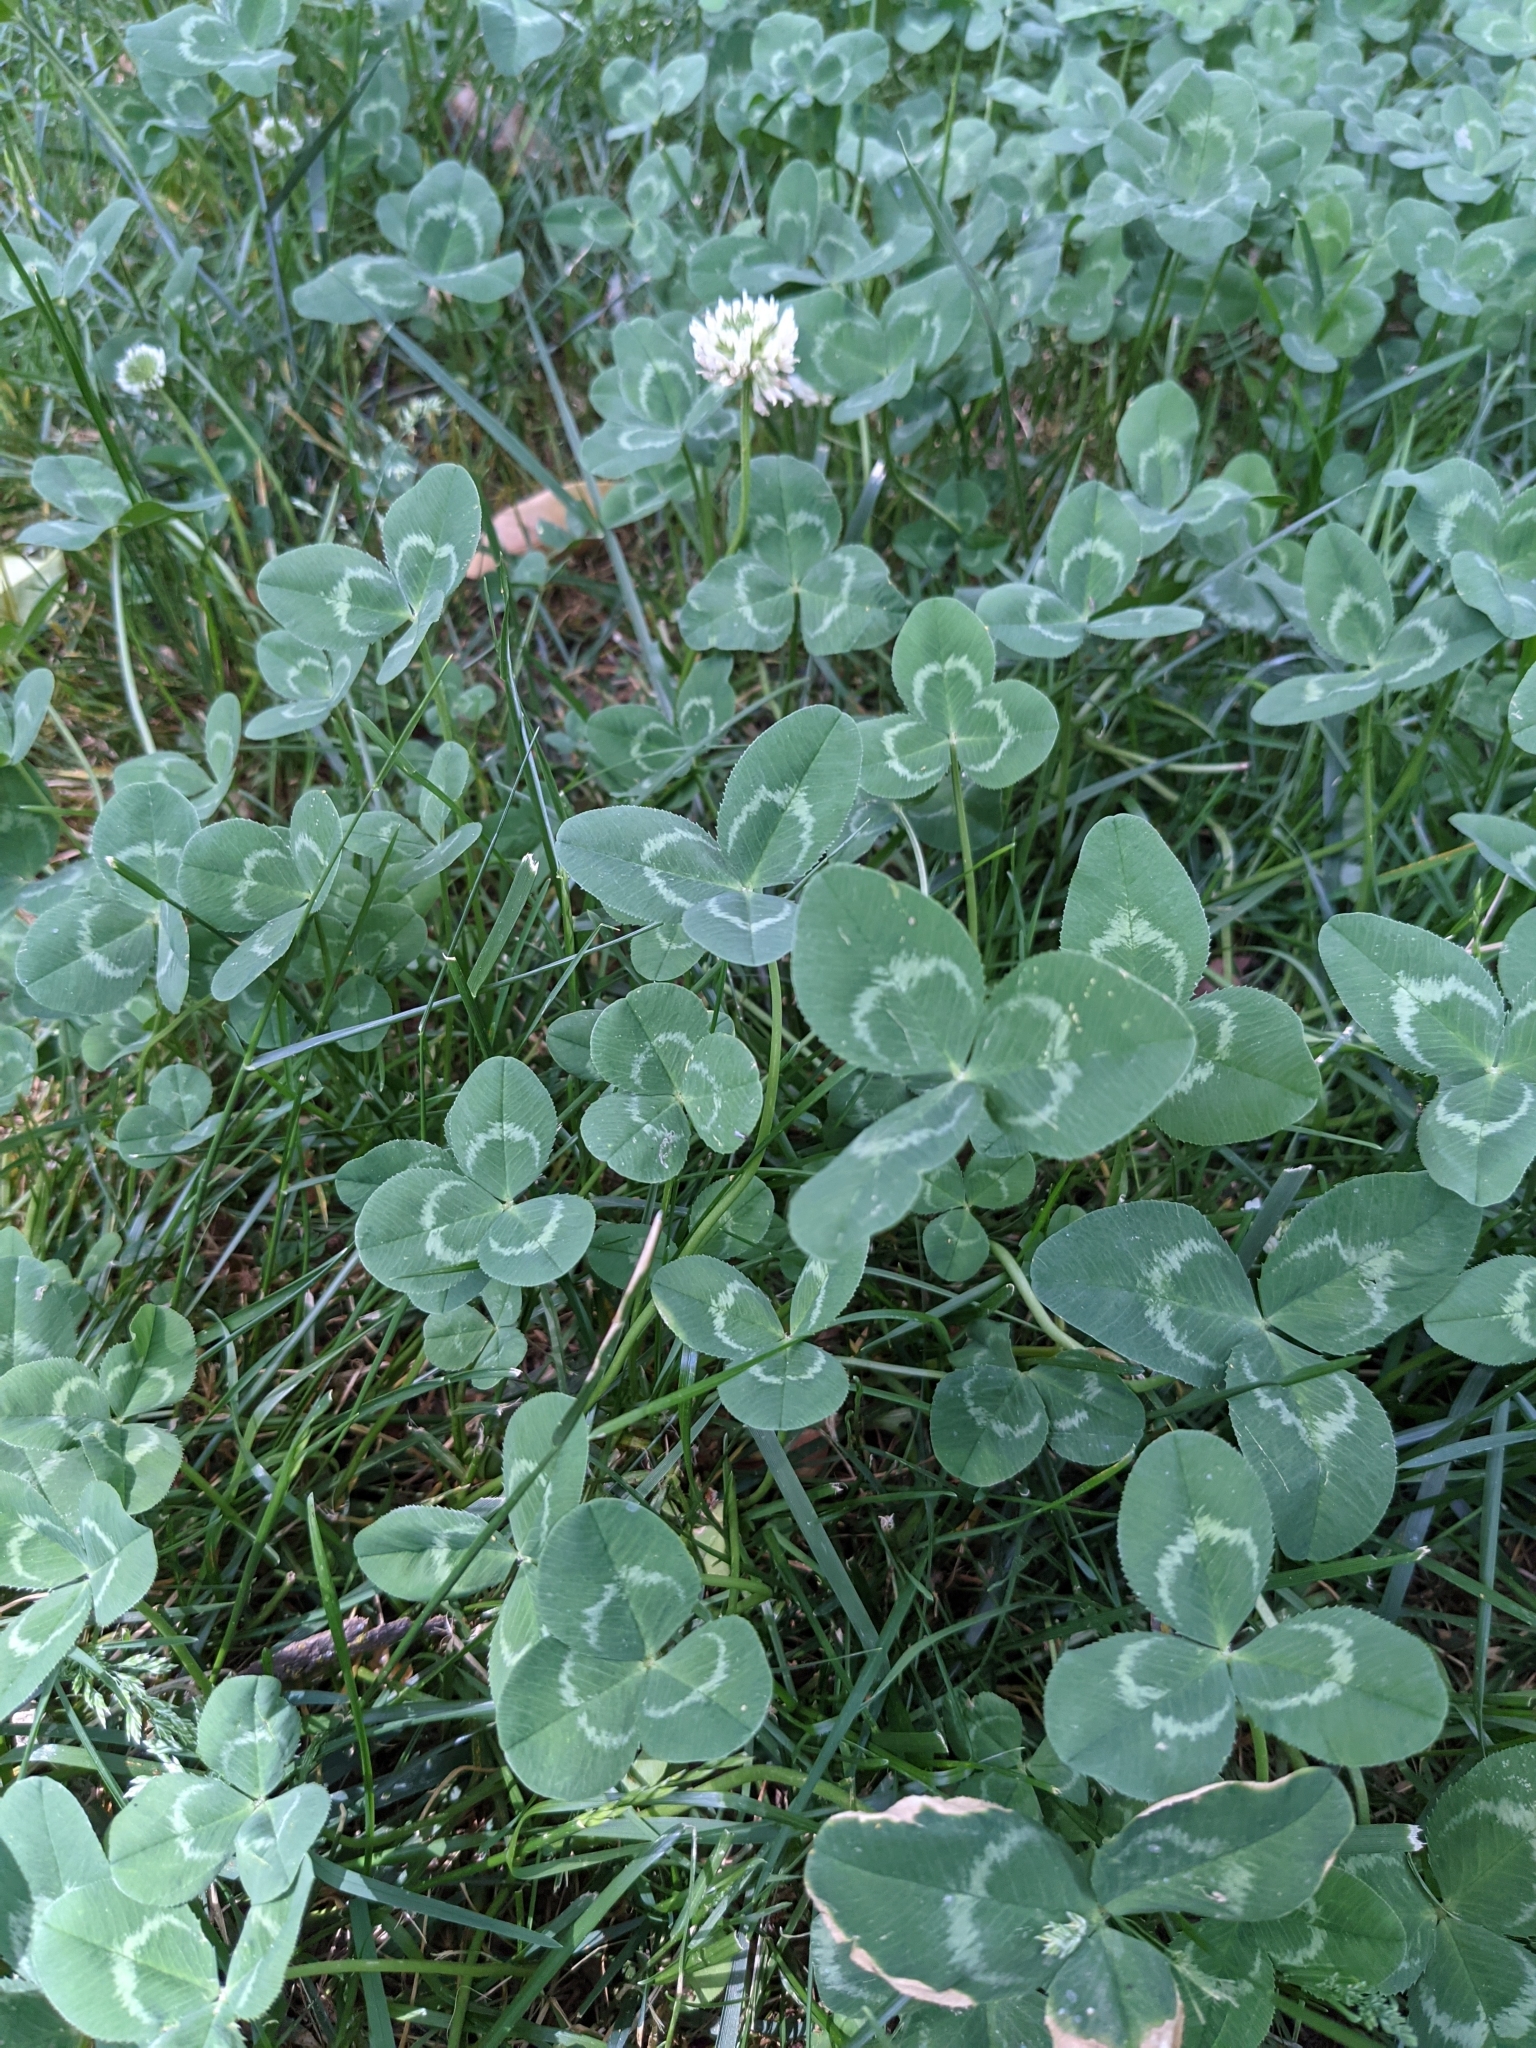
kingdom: Plantae
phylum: Tracheophyta
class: Magnoliopsida
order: Fabales
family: Fabaceae
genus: Trifolium
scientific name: Trifolium repens
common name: White clover
